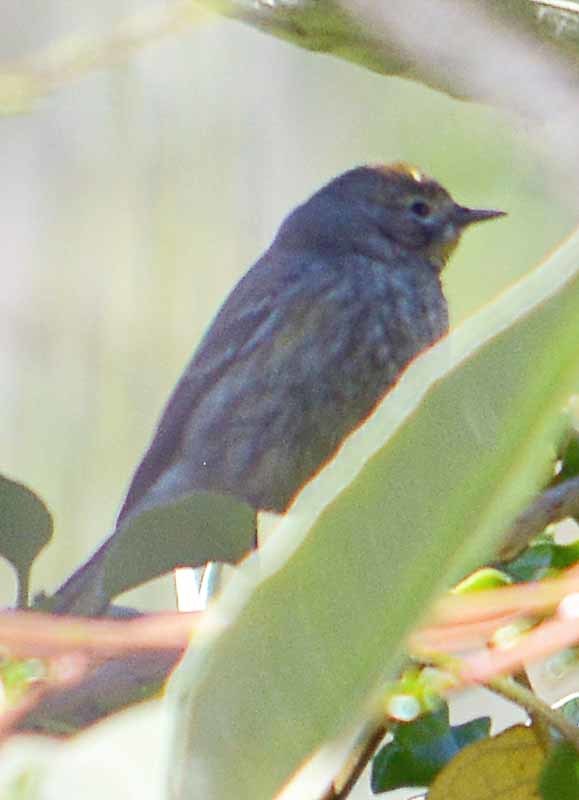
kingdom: Animalia
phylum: Chordata
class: Aves
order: Passeriformes
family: Parulidae
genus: Setophaga
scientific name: Setophaga coronata
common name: Myrtle warbler
